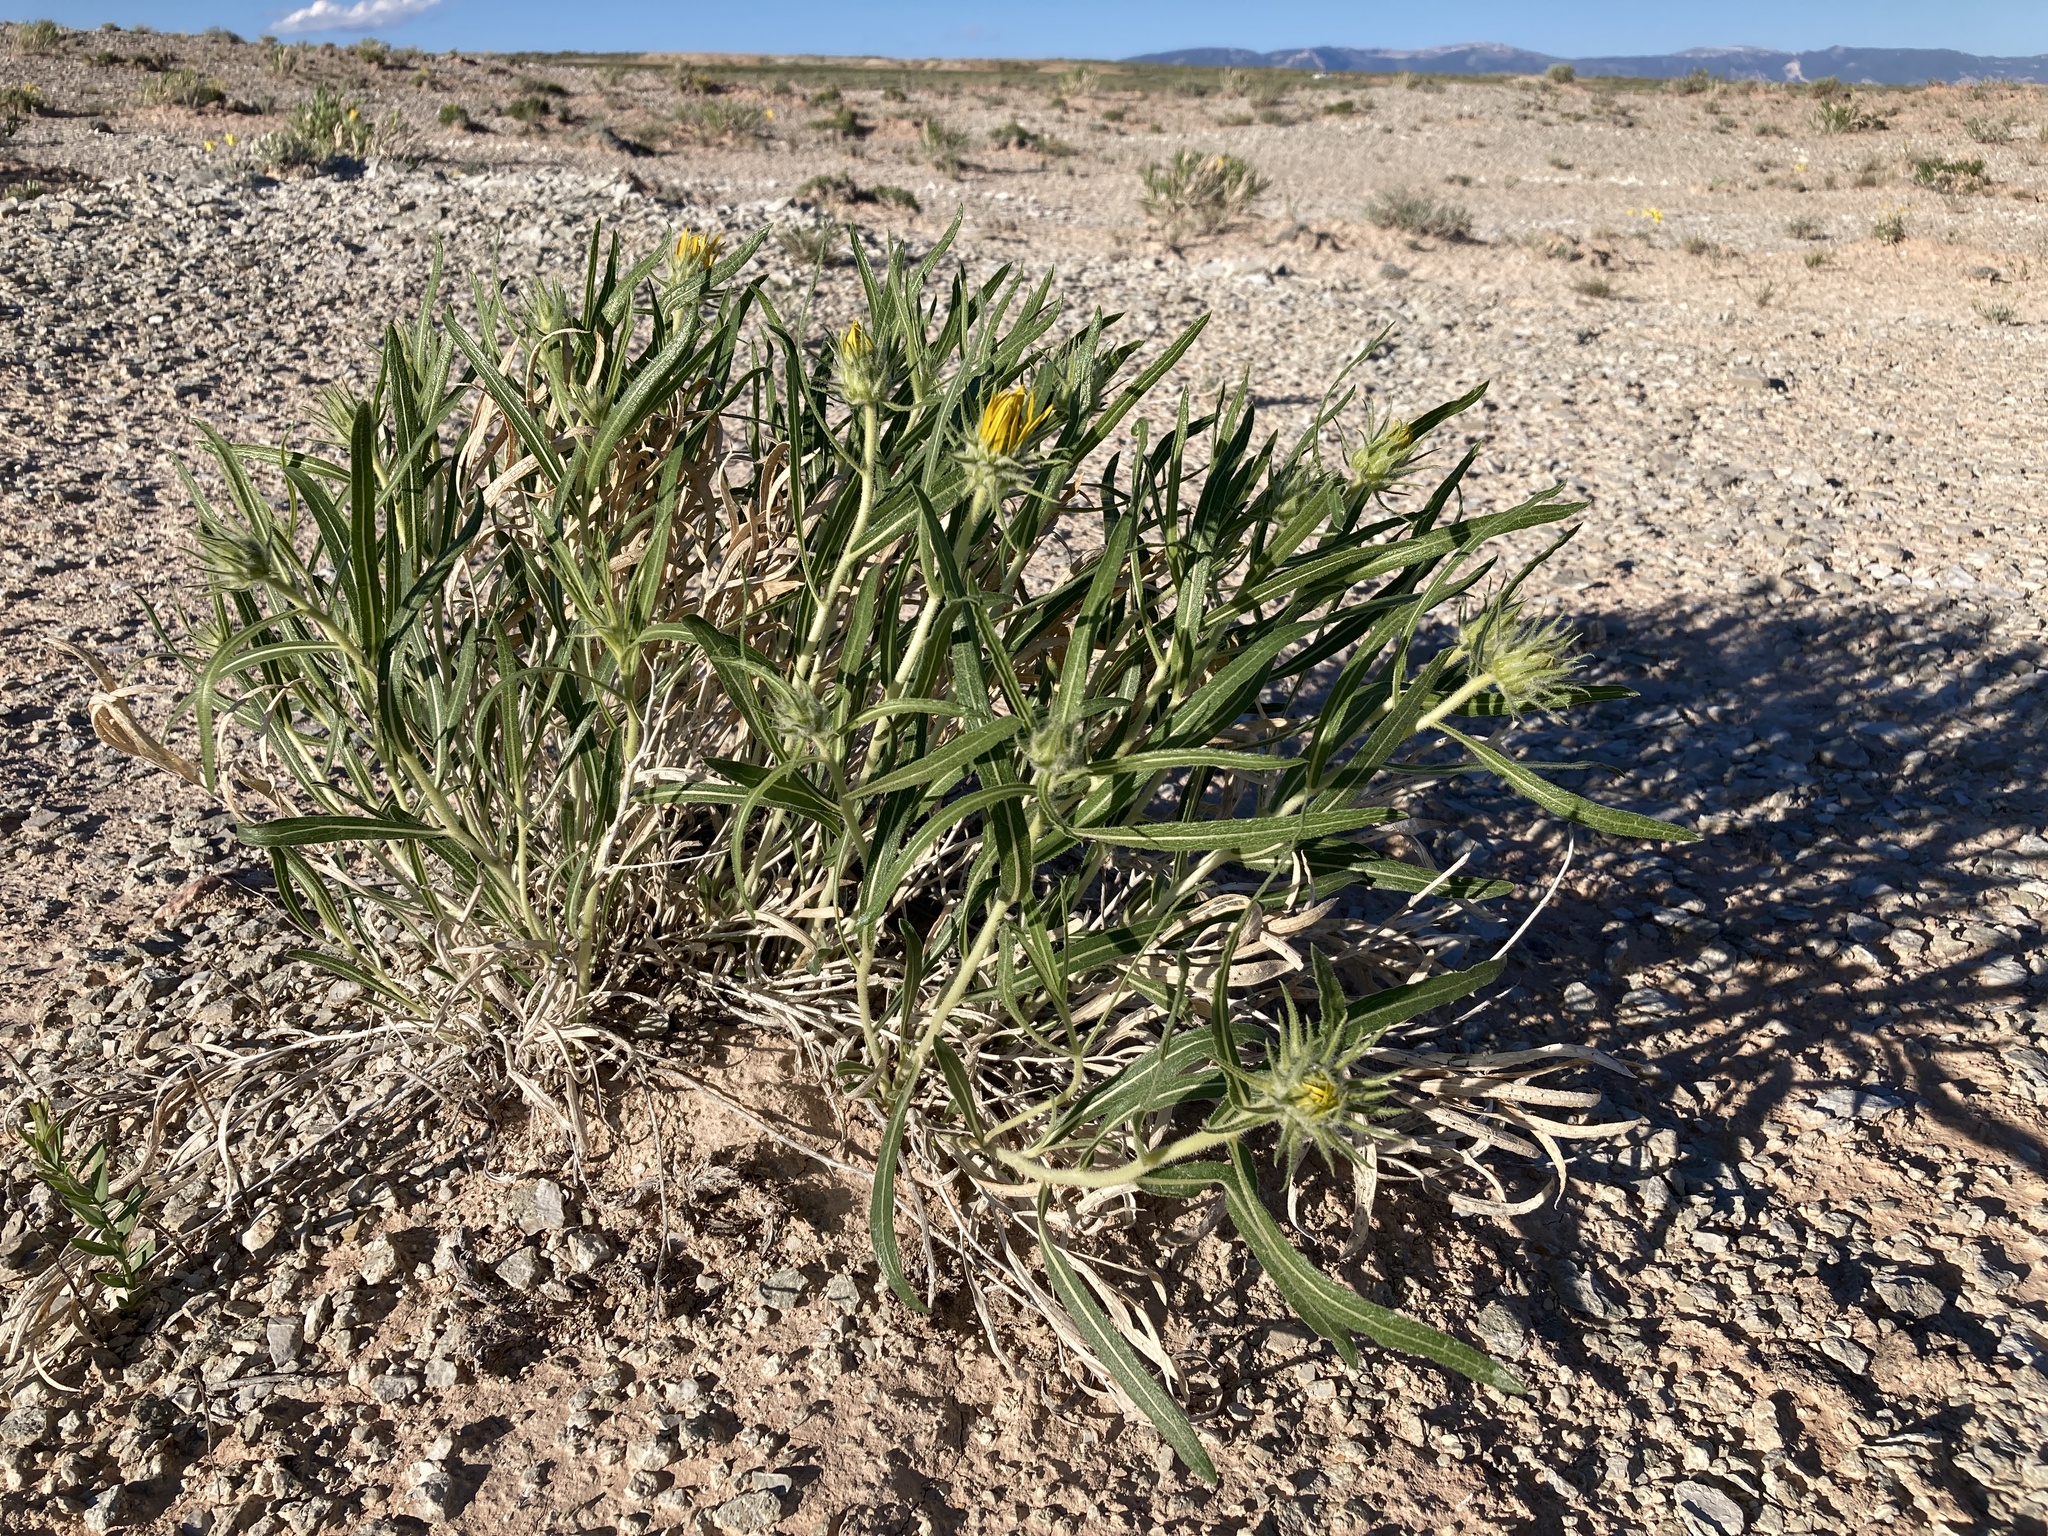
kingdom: Plantae
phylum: Tracheophyta
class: Magnoliopsida
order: Asterales
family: Asteraceae
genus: Scabrethia
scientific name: Scabrethia scabra
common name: Rough mules's-ears
